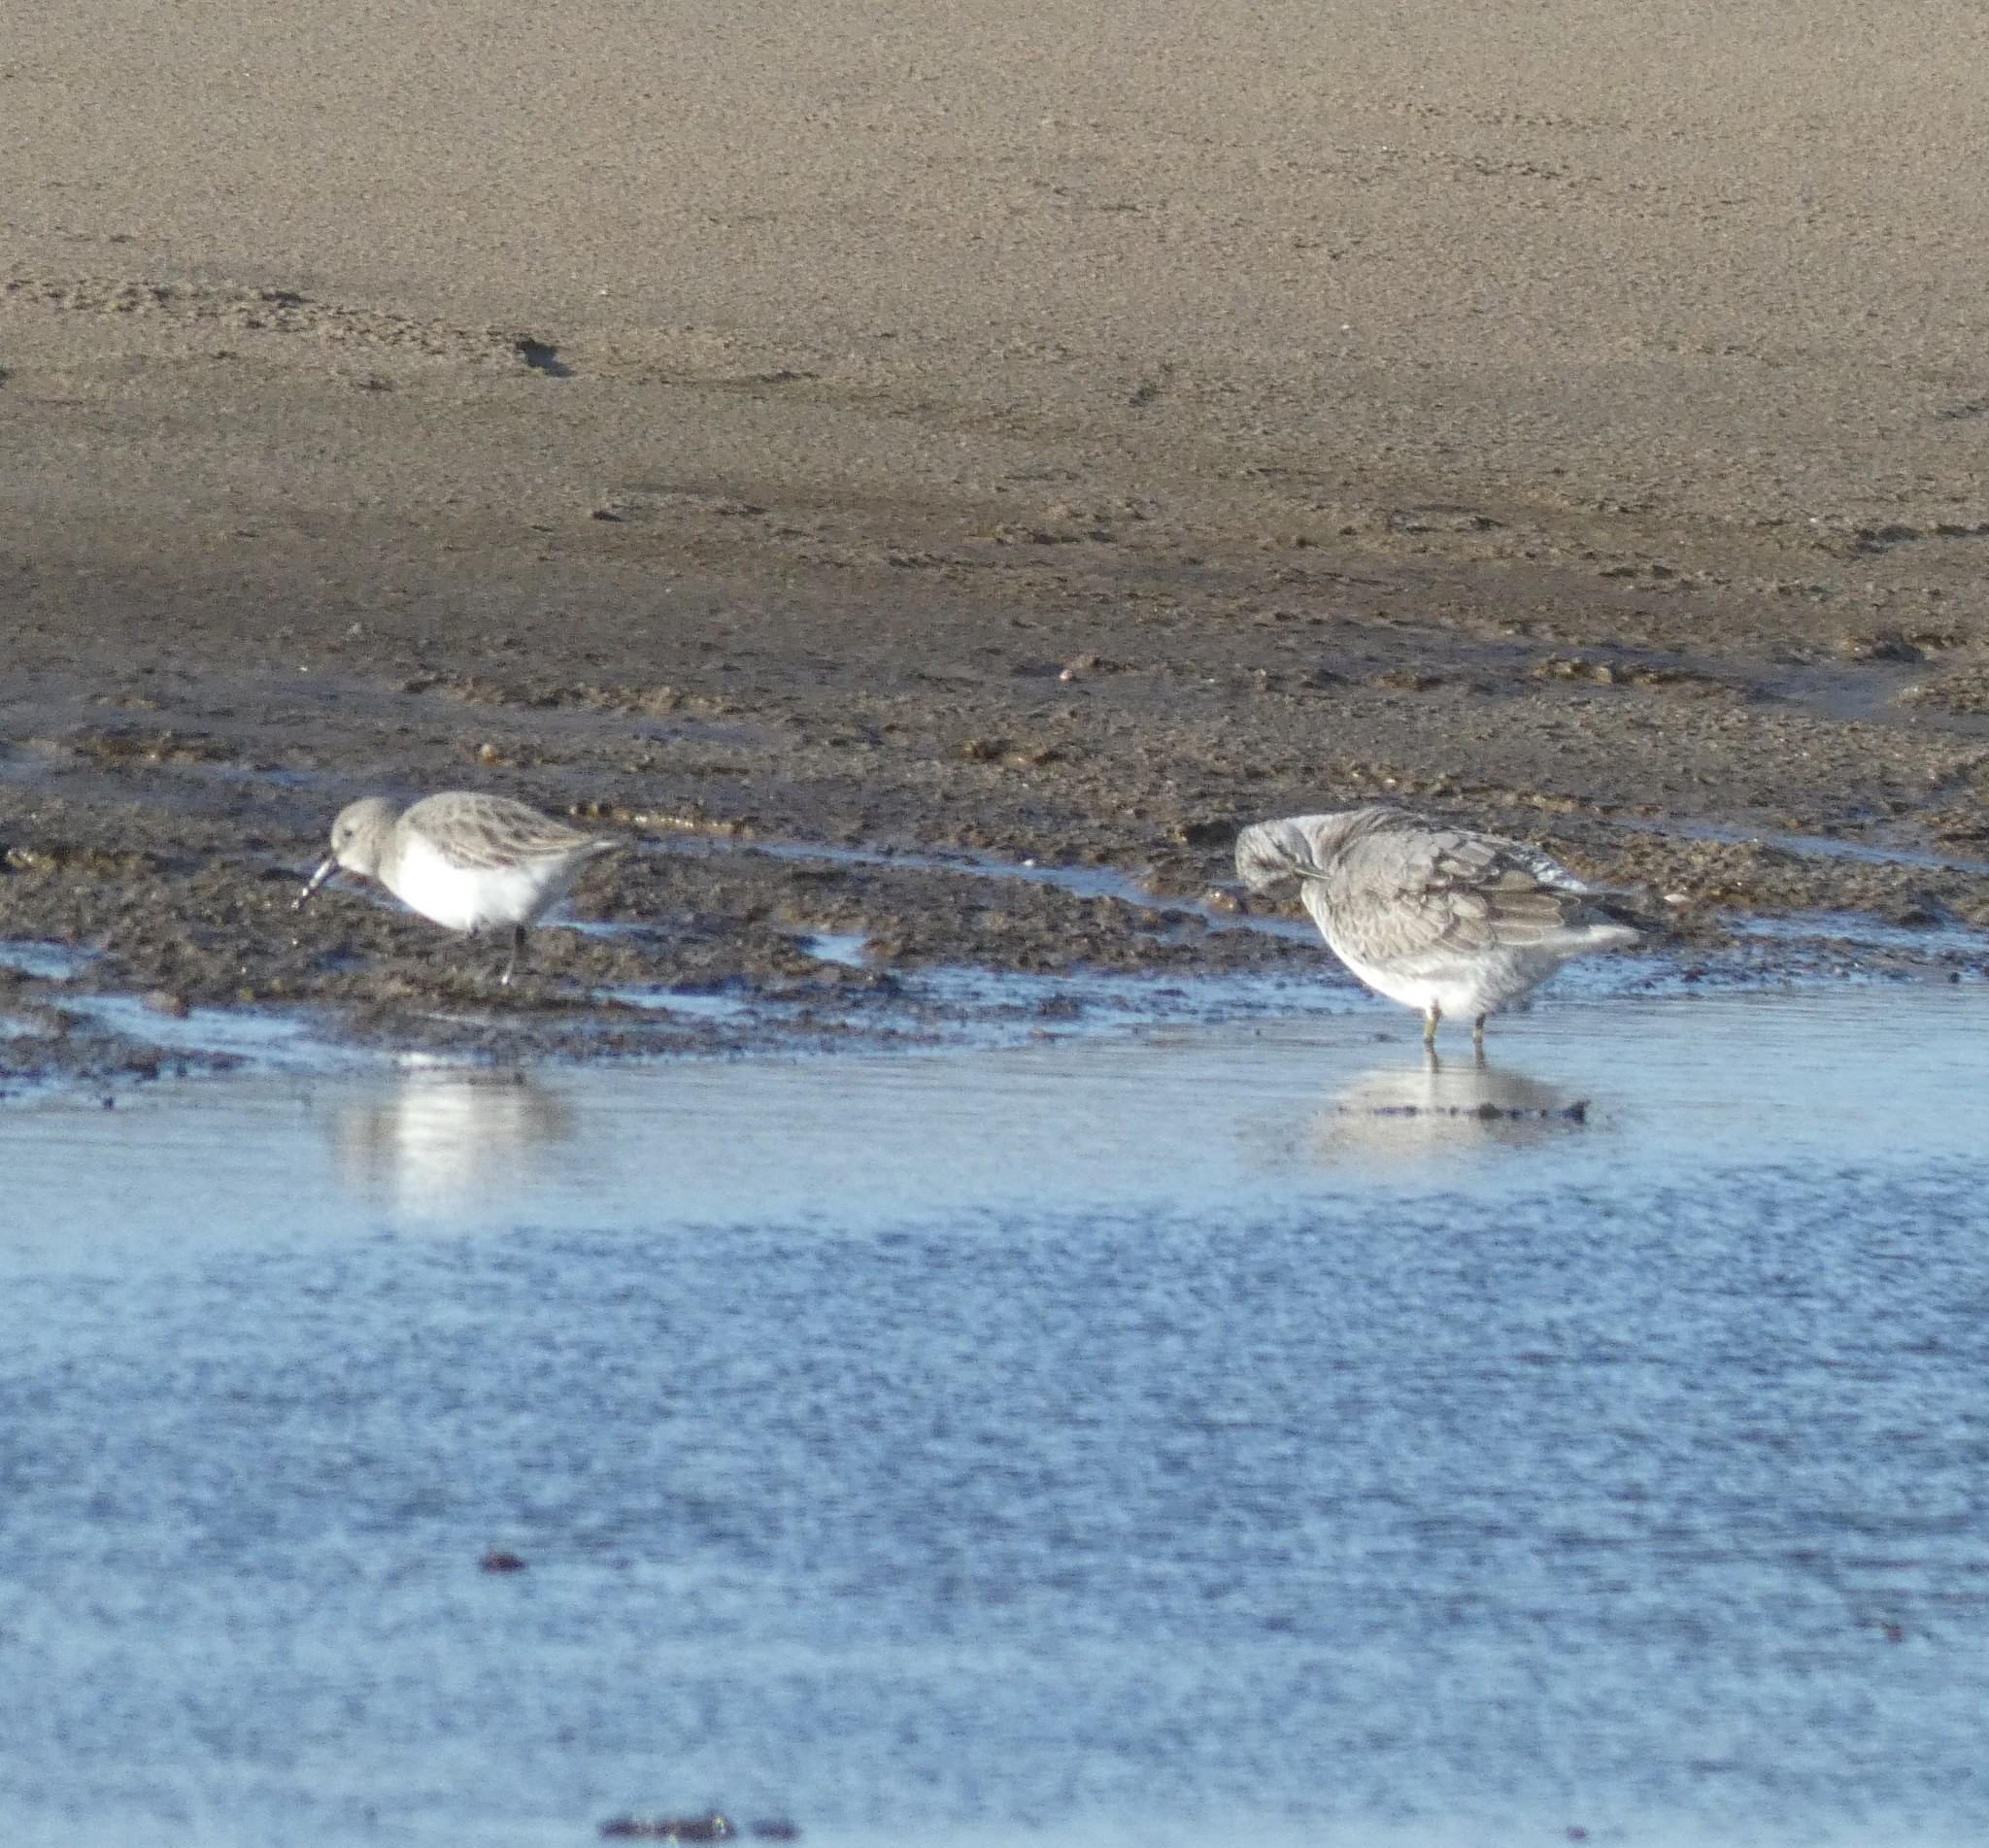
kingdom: Animalia
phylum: Chordata
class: Aves
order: Charadriiformes
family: Scolopacidae
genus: Calidris
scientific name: Calidris alpina
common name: Dunlin
